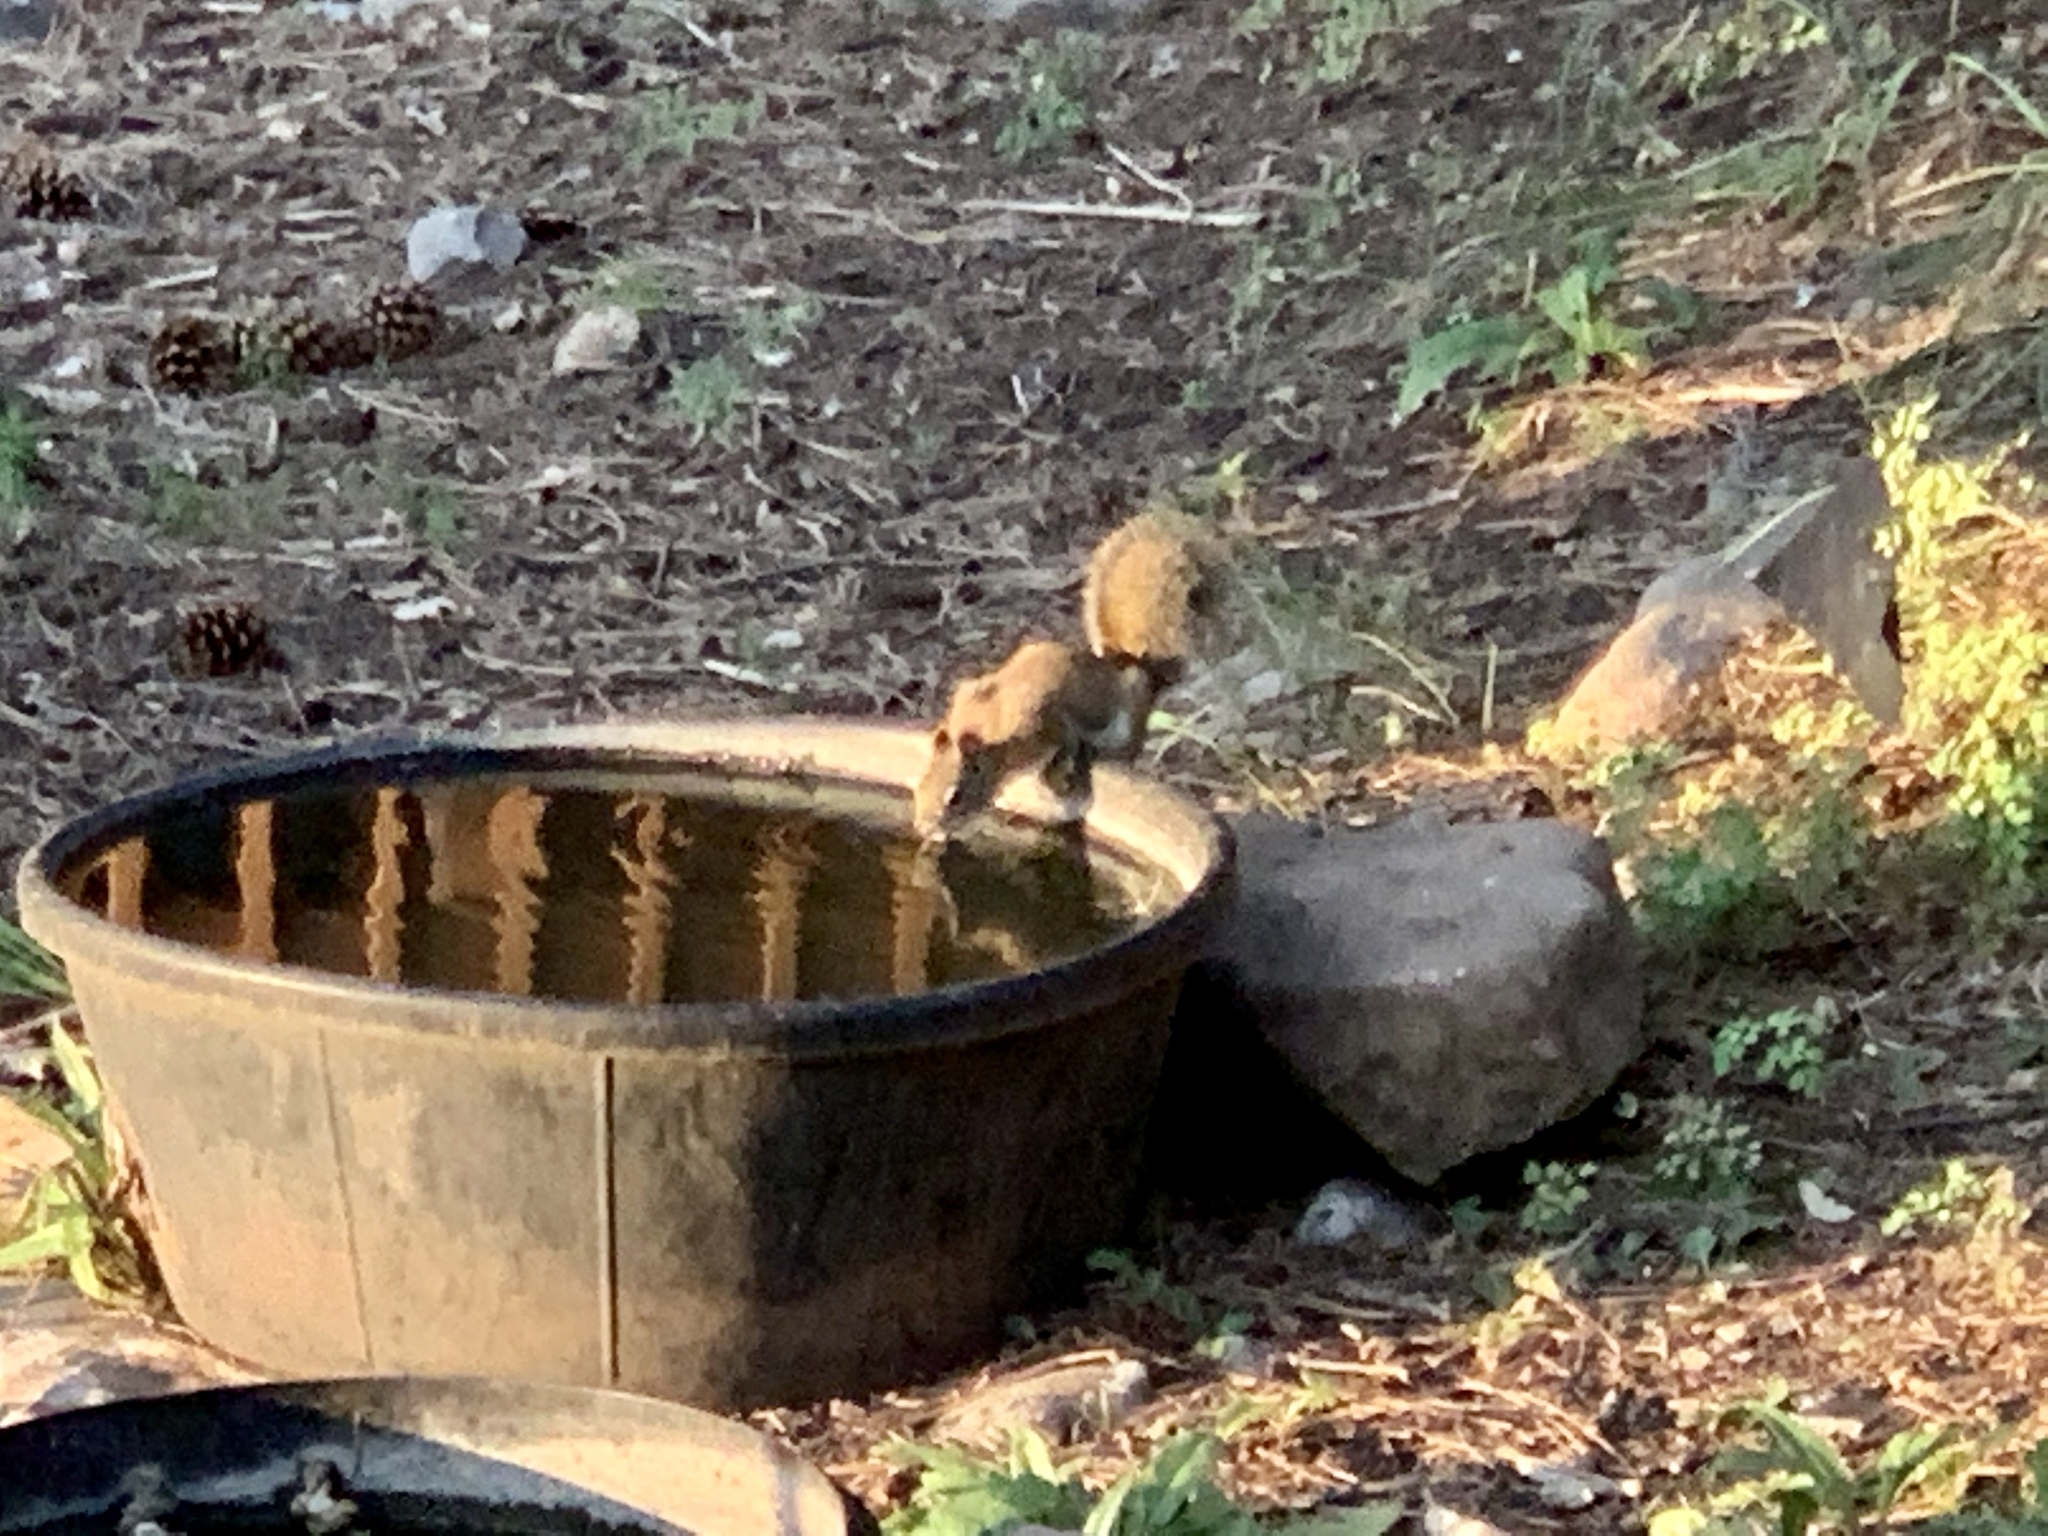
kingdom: Animalia
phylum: Chordata
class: Mammalia
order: Rodentia
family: Sciuridae
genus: Tamiasciurus
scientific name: Tamiasciurus hudsonicus
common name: Red squirrel
